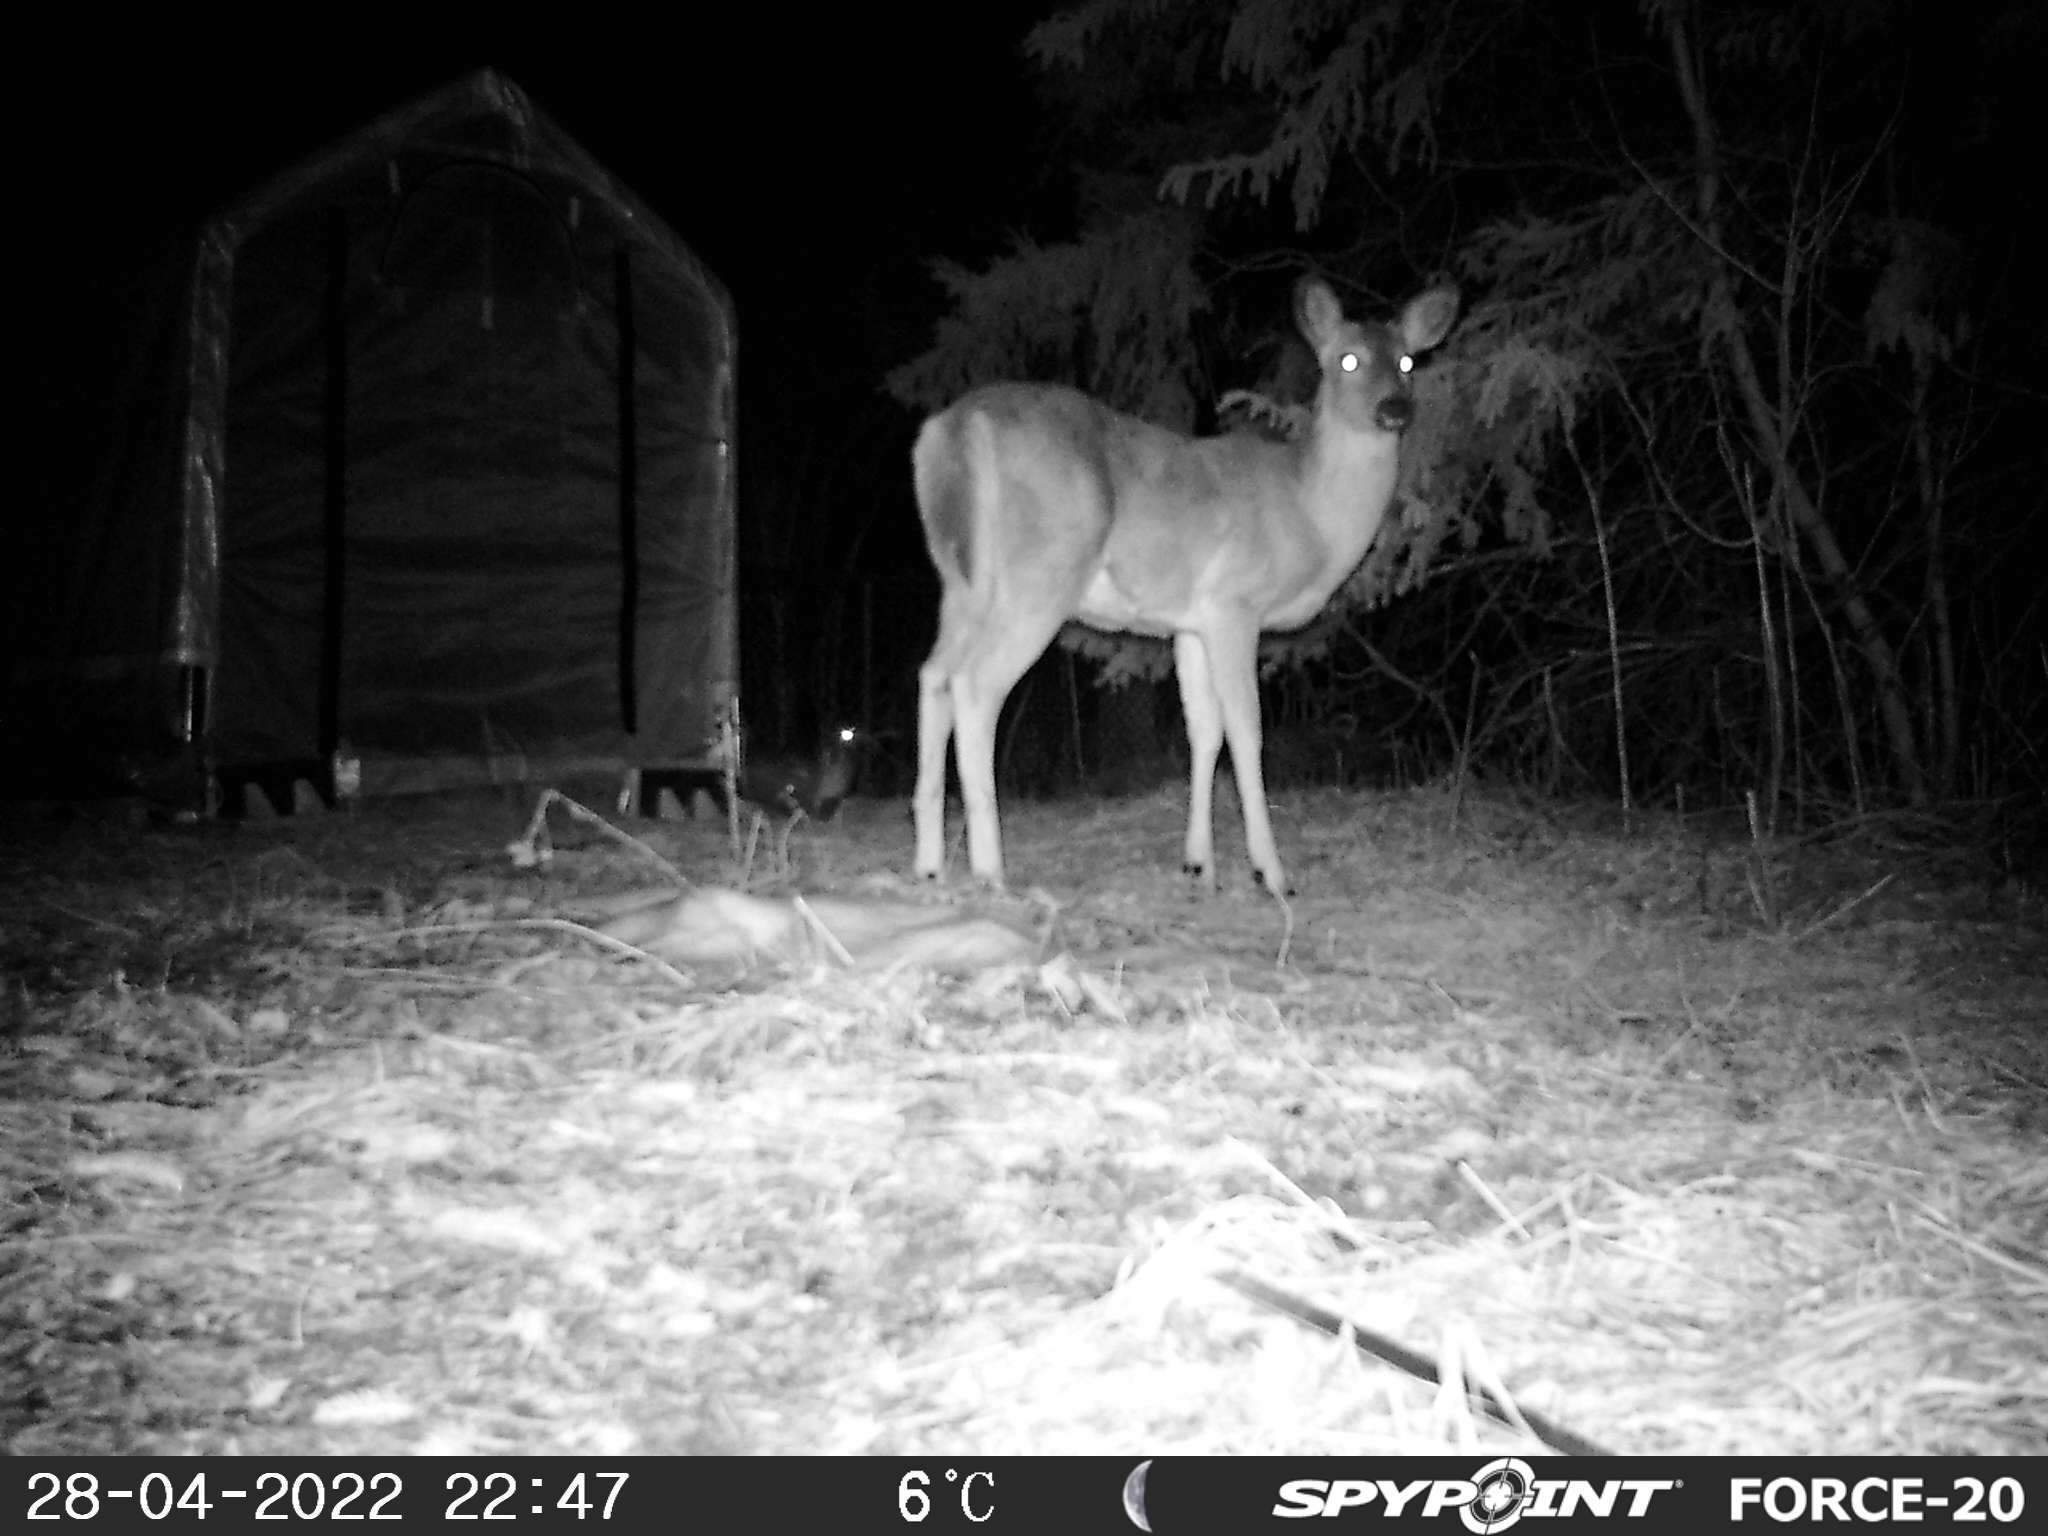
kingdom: Animalia
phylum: Chordata
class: Mammalia
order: Artiodactyla
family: Cervidae
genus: Odocoileus
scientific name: Odocoileus virginianus
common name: White-tailed deer
